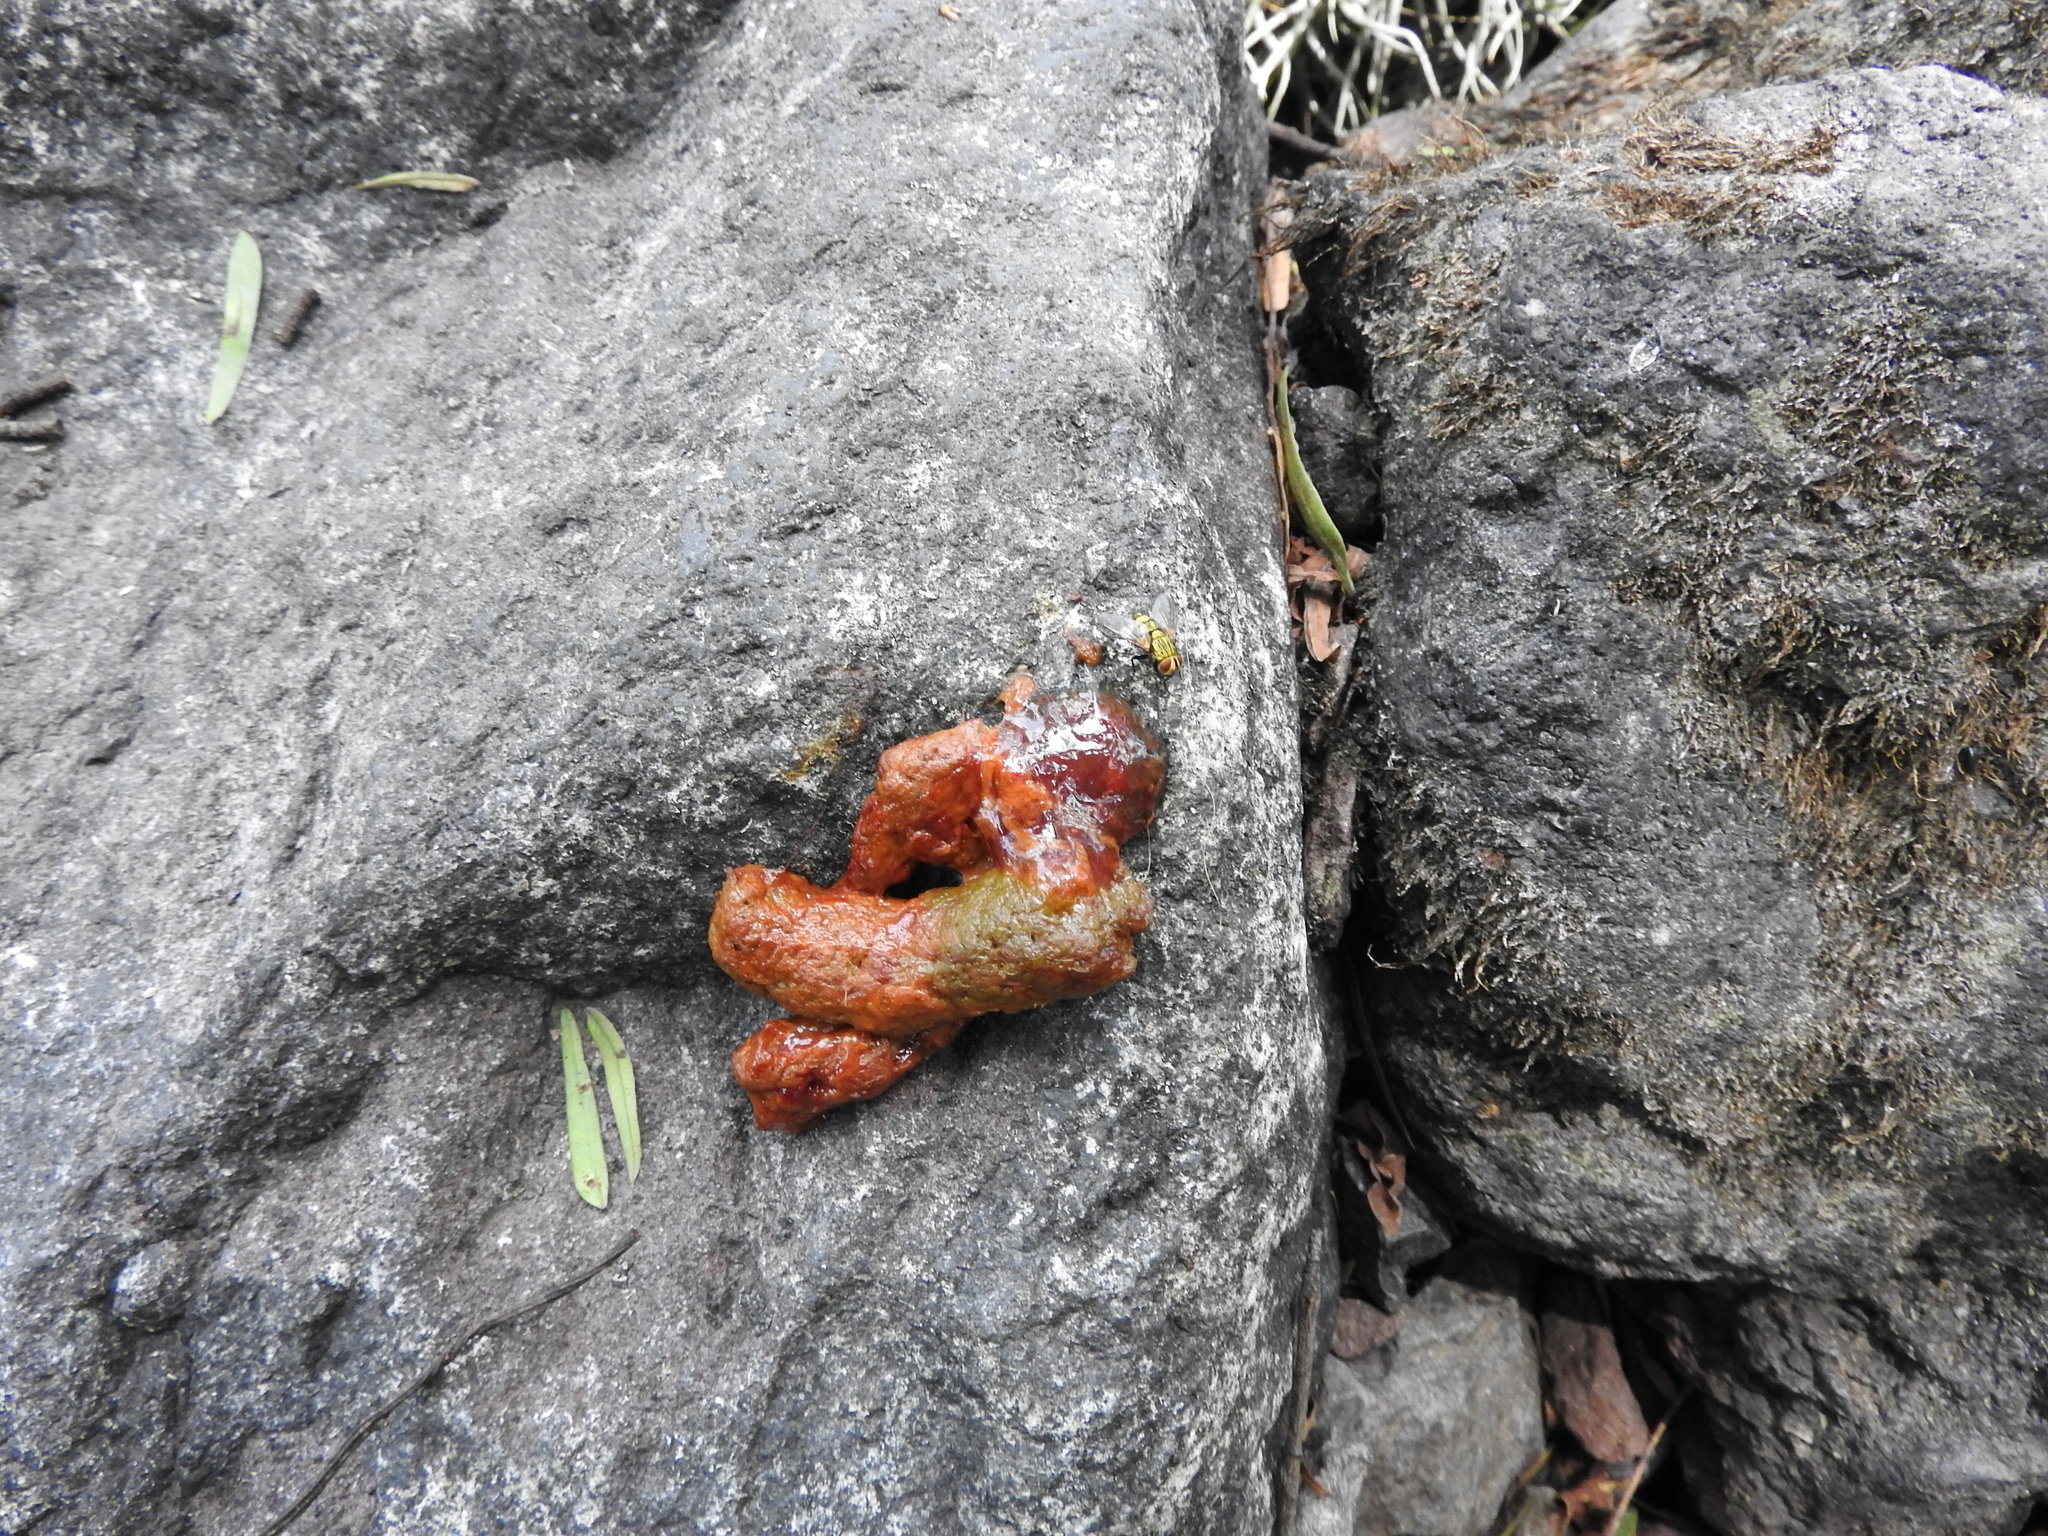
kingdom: Animalia
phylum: Chordata
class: Mammalia
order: Carnivora
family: Canidae
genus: Urocyon
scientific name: Urocyon cinereoargenteus
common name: Gray fox
